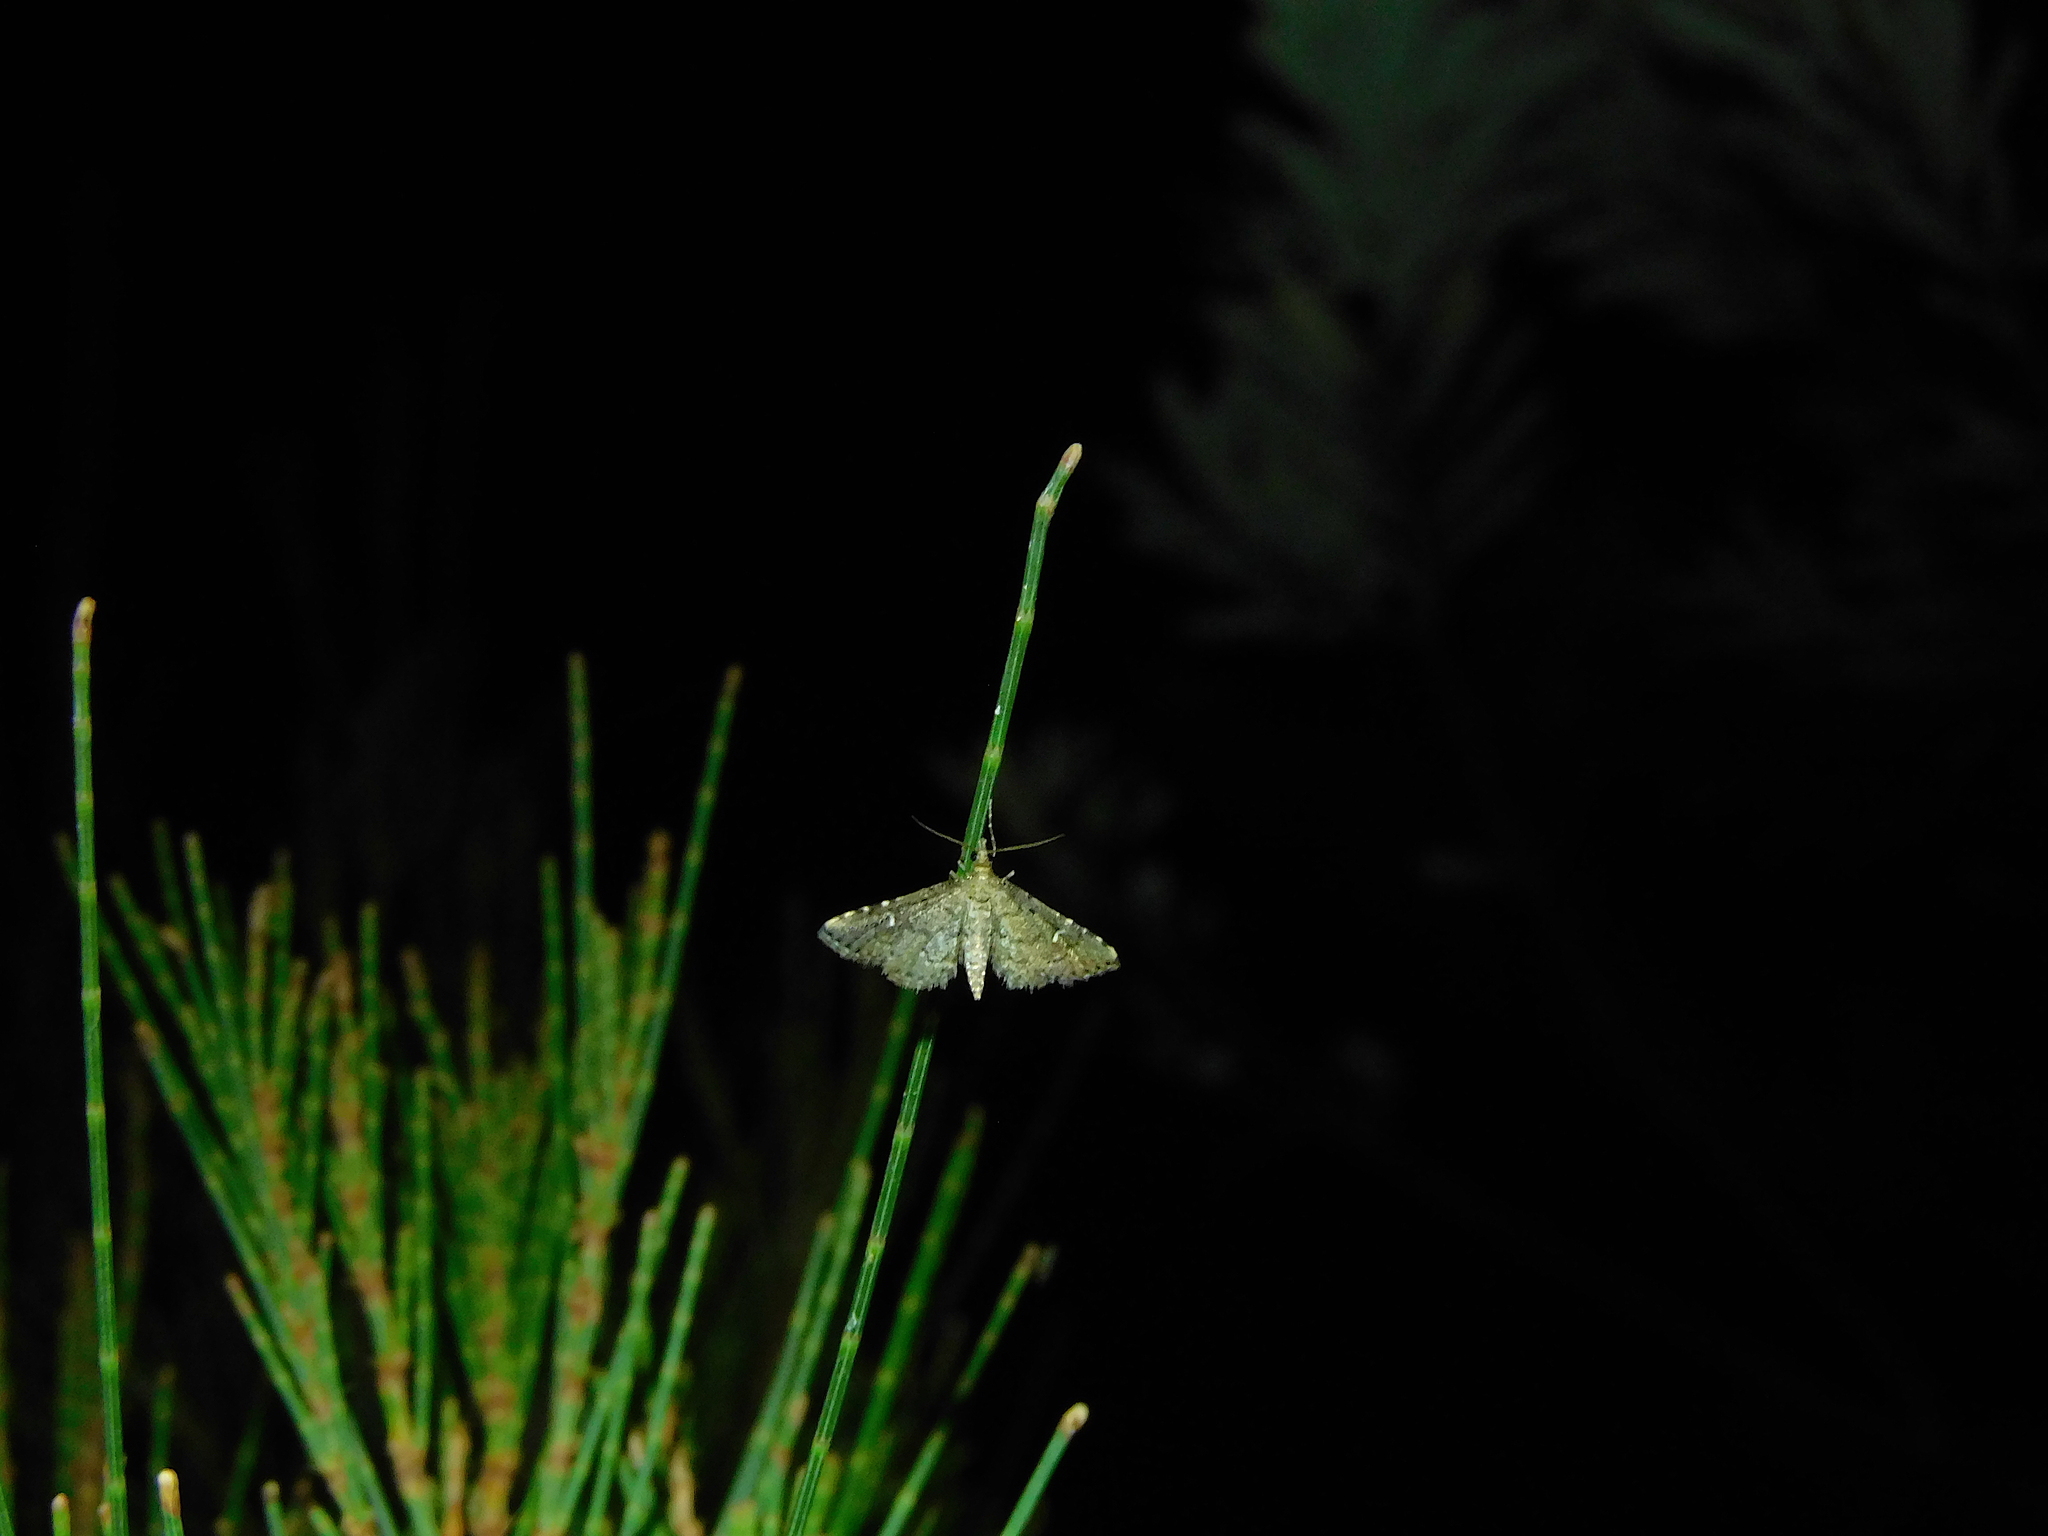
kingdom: Animalia
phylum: Arthropoda
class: Insecta
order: Lepidoptera
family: Crambidae
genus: Metasia
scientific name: Metasia capnochroa
